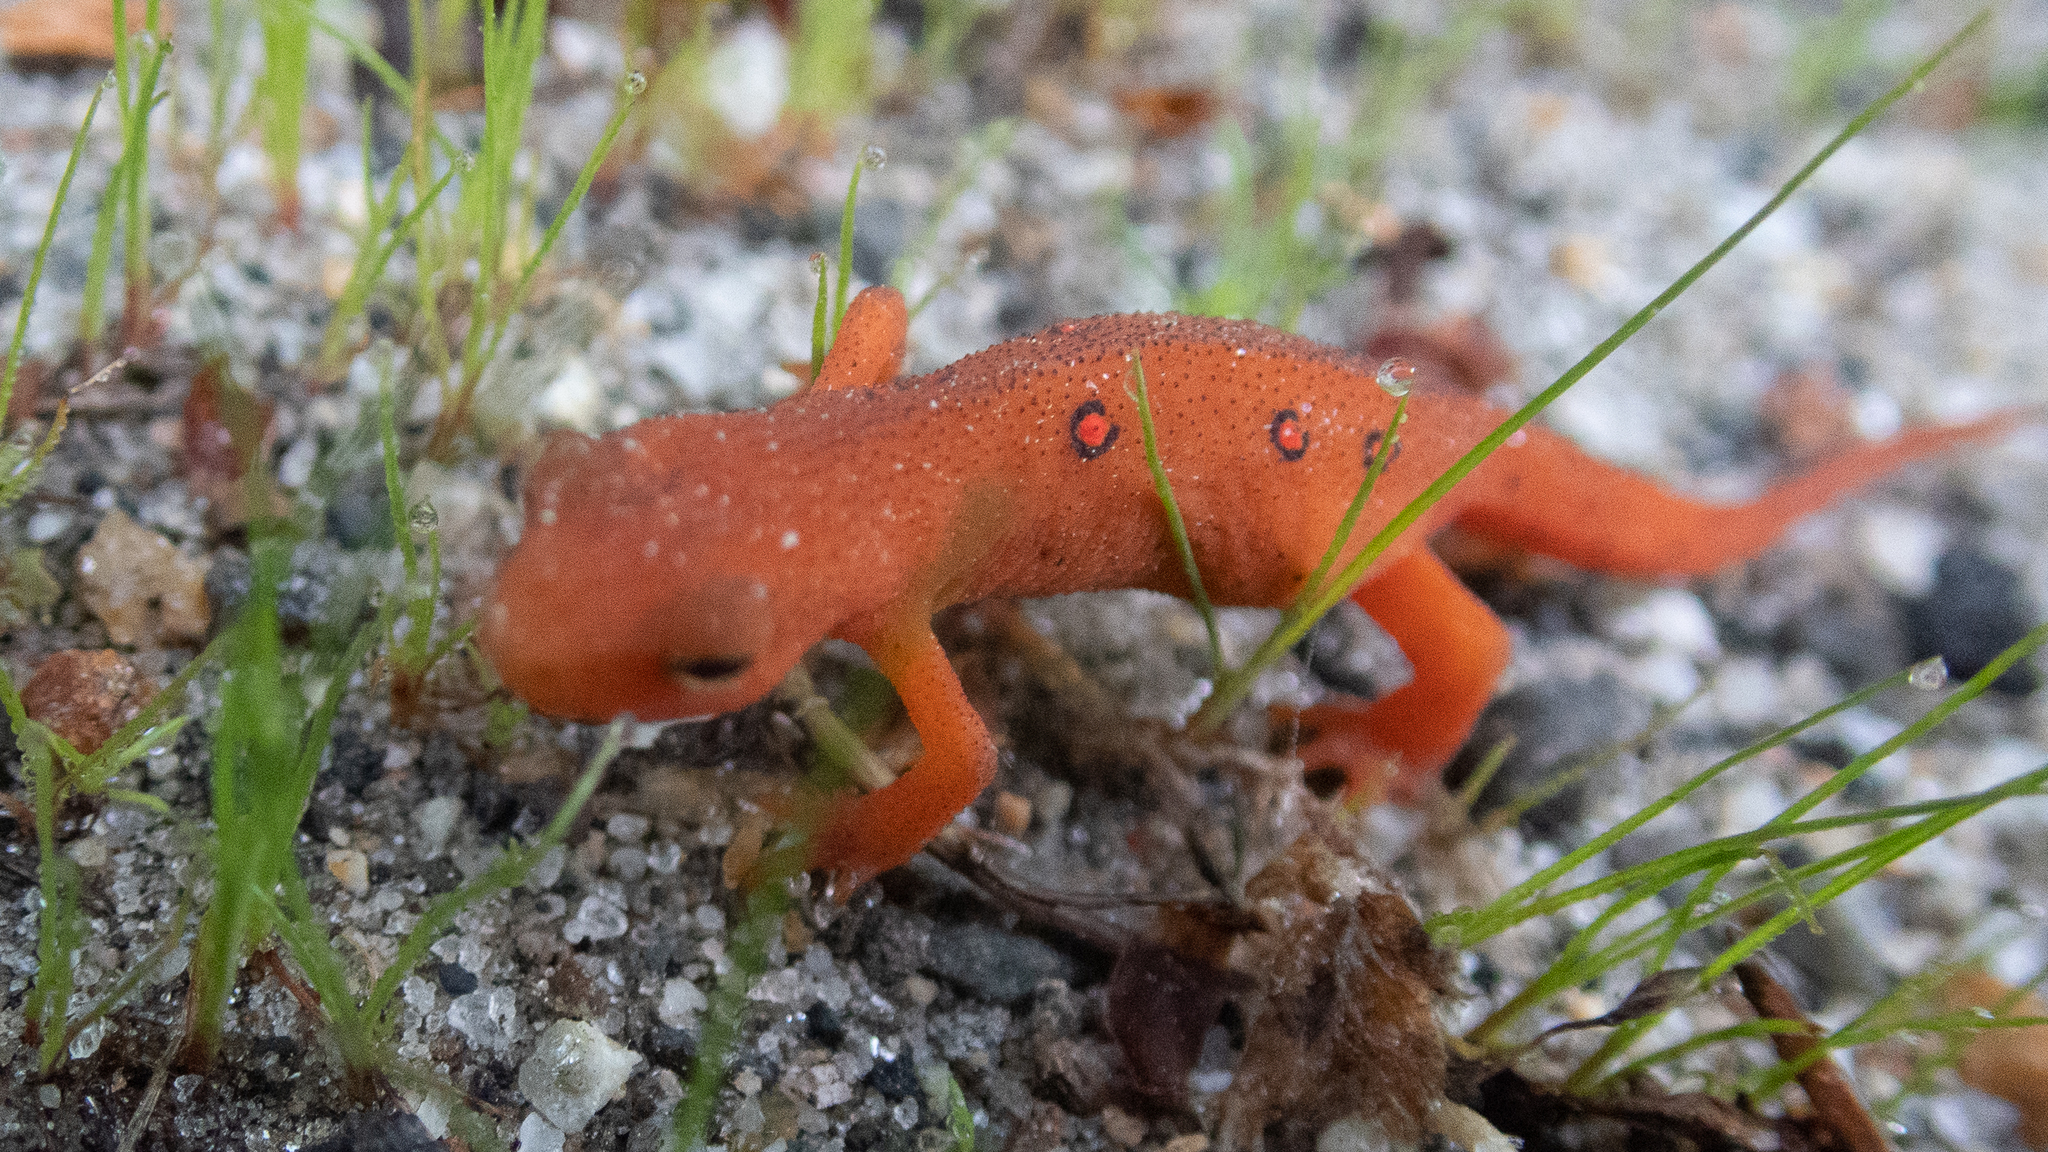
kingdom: Animalia
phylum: Chordata
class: Amphibia
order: Caudata
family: Salamandridae
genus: Notophthalmus
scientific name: Notophthalmus viridescens
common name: Eastern newt
